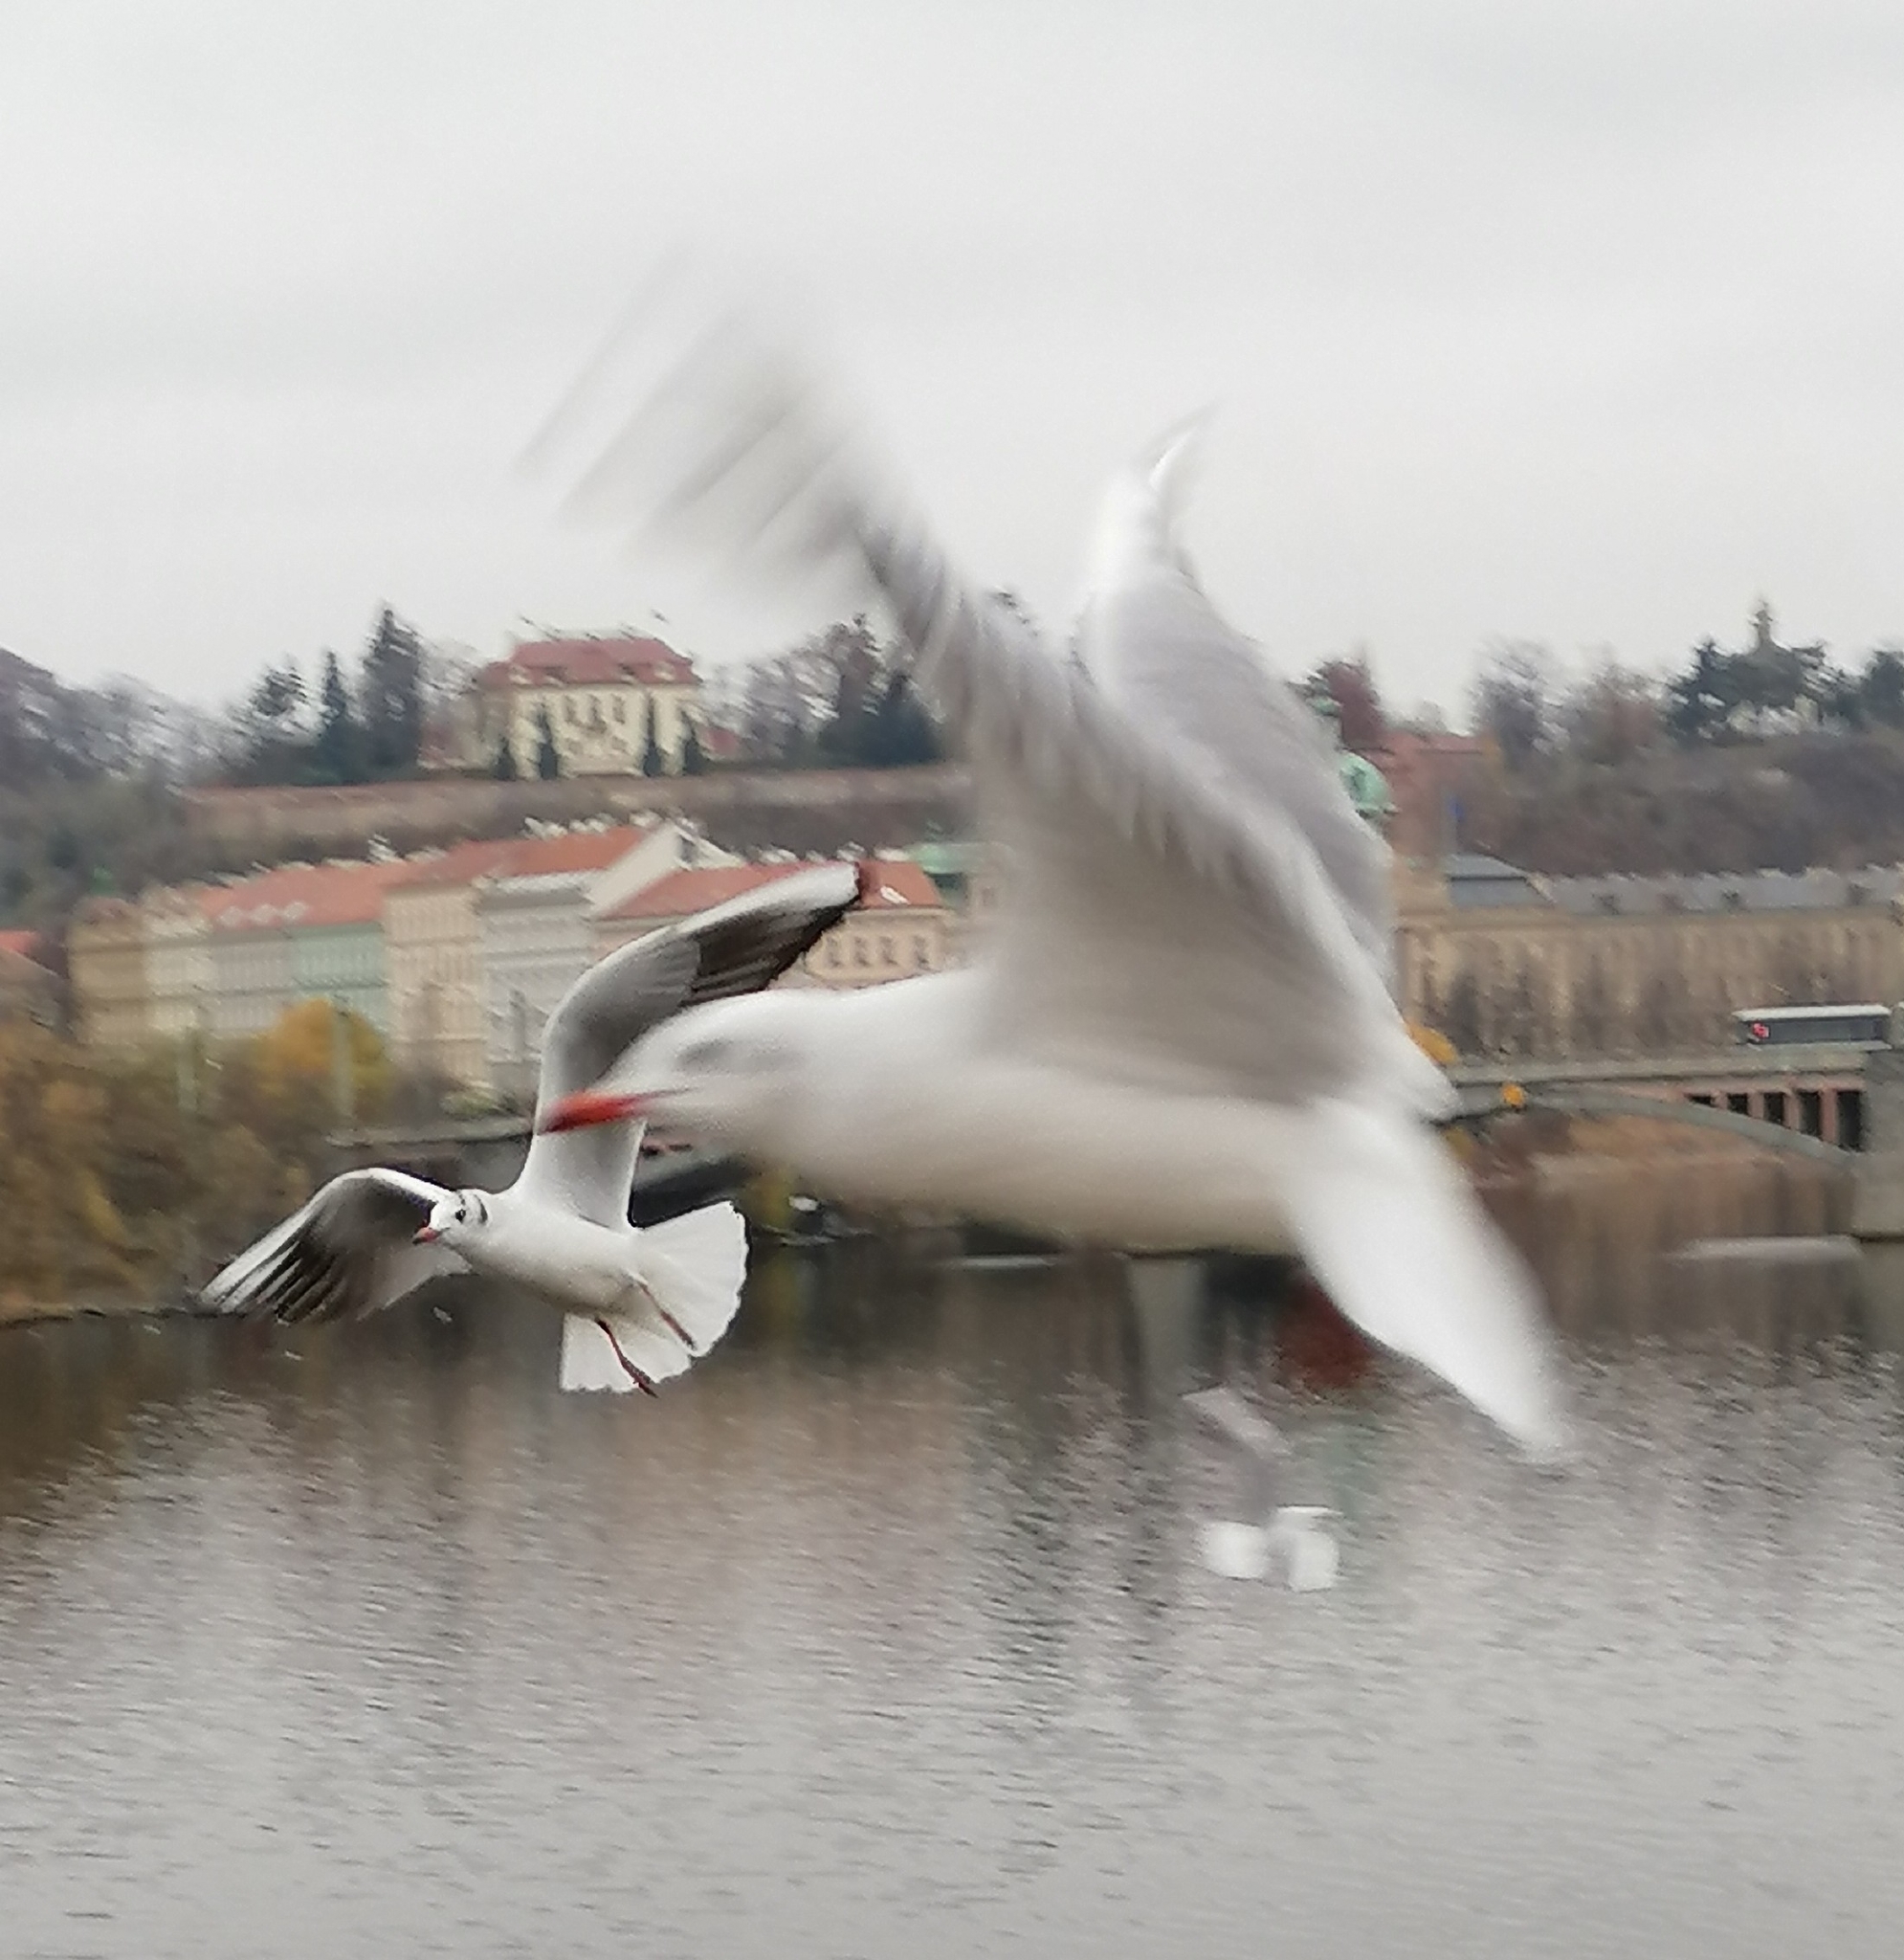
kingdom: Animalia
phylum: Chordata
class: Aves
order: Charadriiformes
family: Laridae
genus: Chroicocephalus
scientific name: Chroicocephalus ridibundus
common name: Black-headed gull
